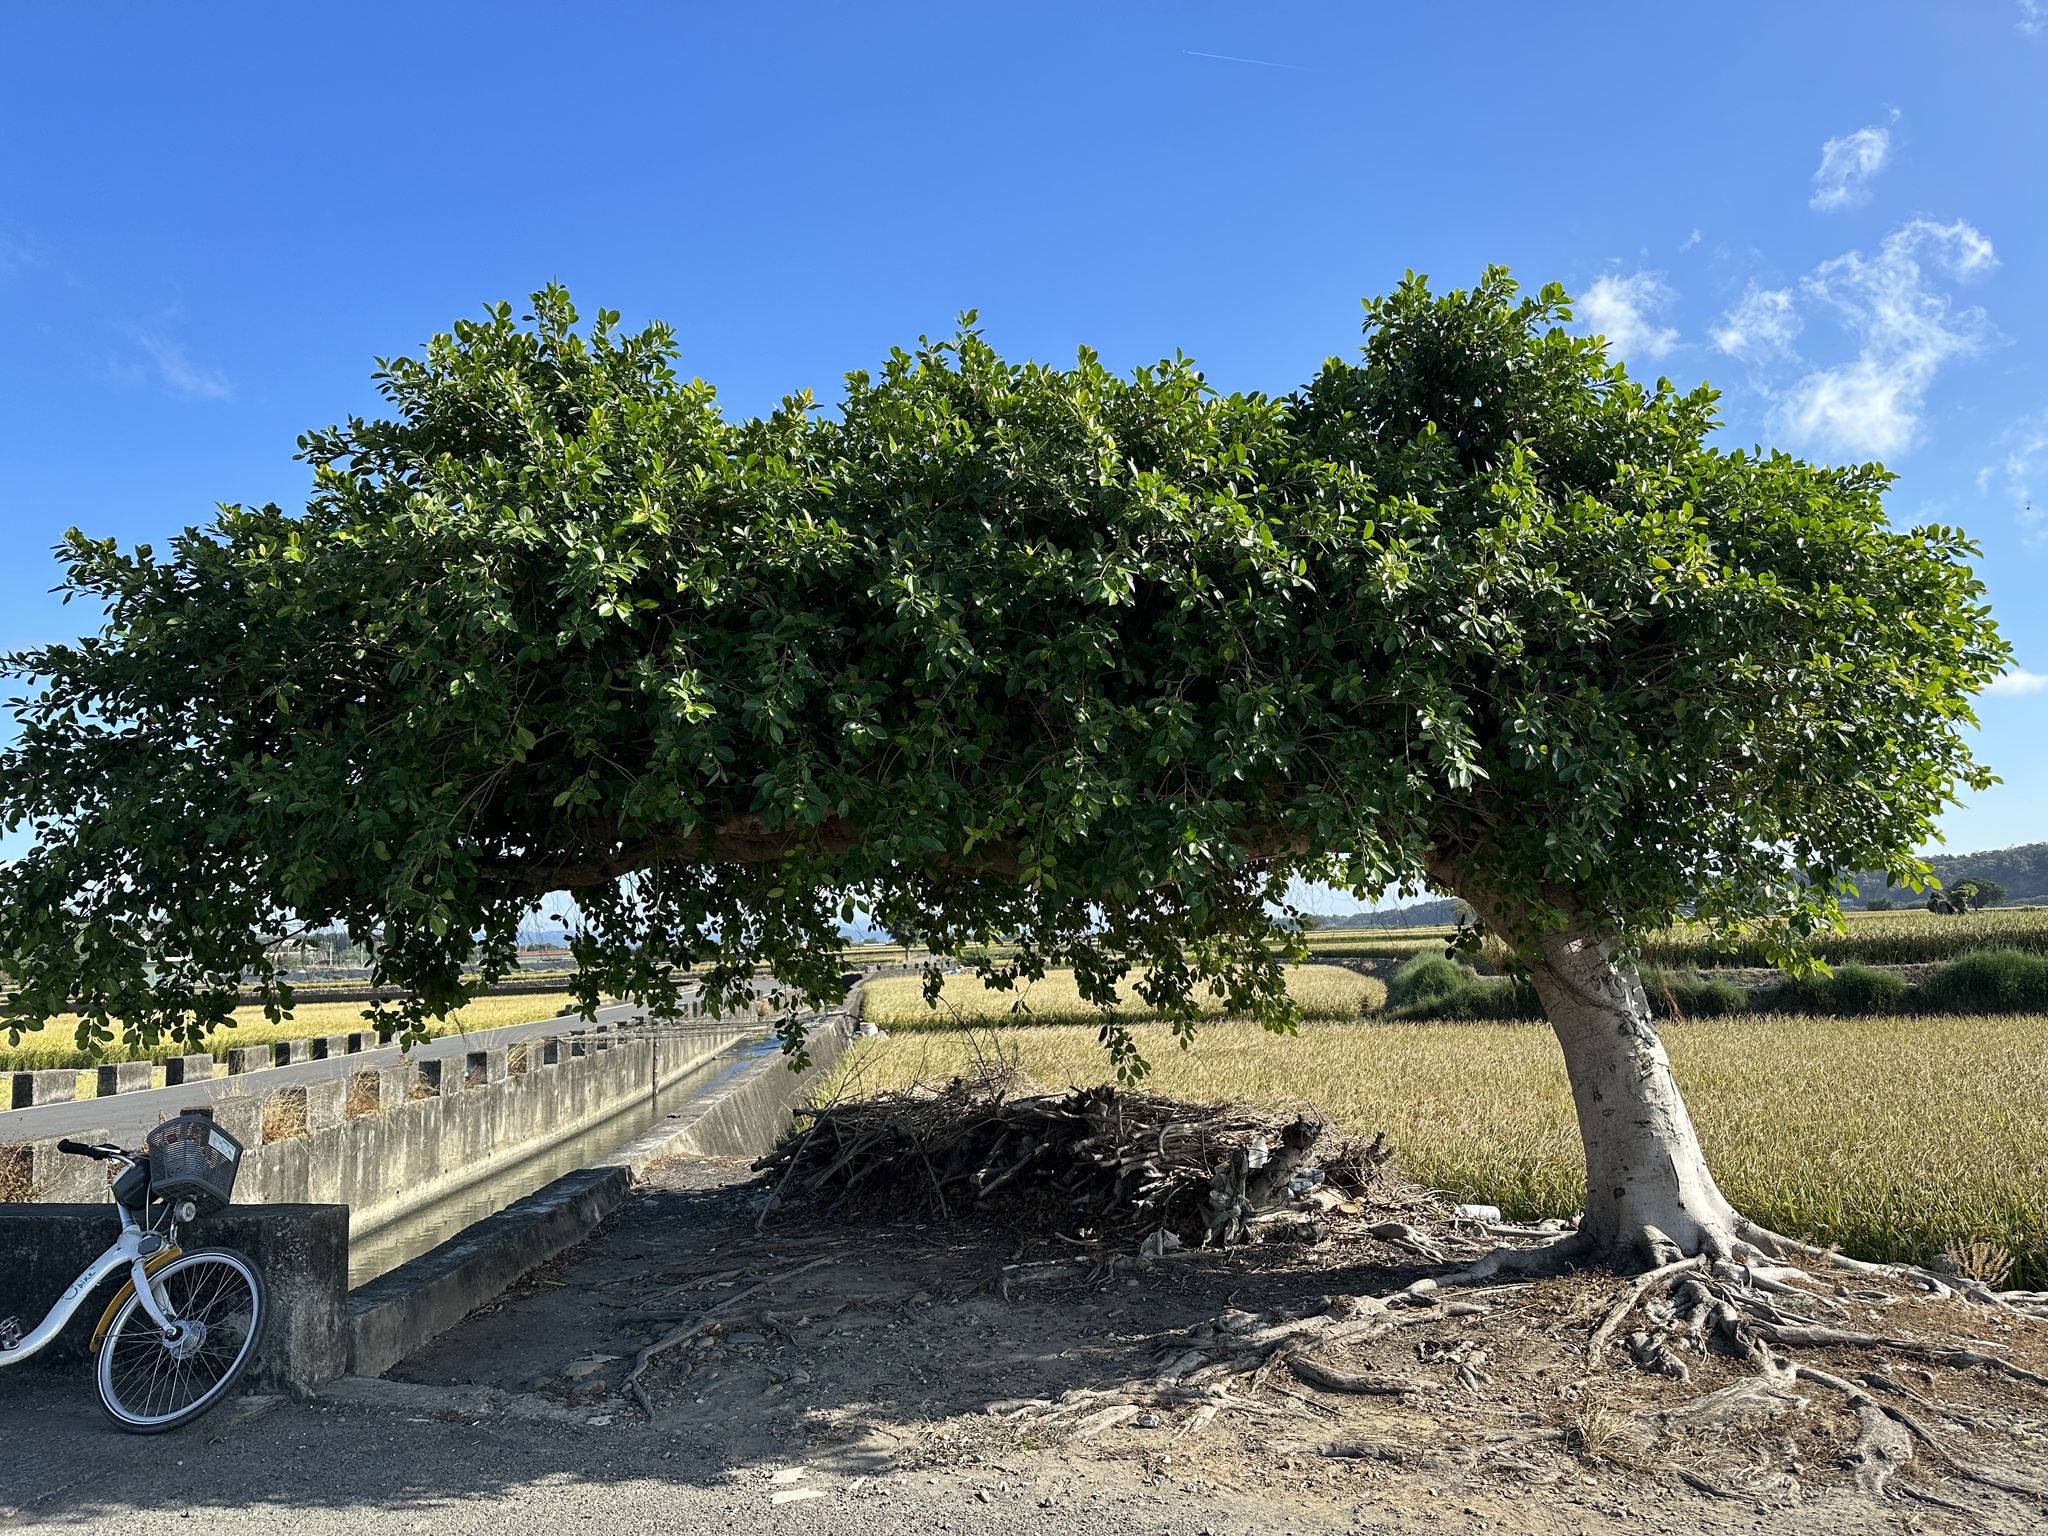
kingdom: Plantae
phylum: Tracheophyta
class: Magnoliopsida
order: Rosales
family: Moraceae
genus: Ficus
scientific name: Ficus microcarpa
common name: Chinese banyan
